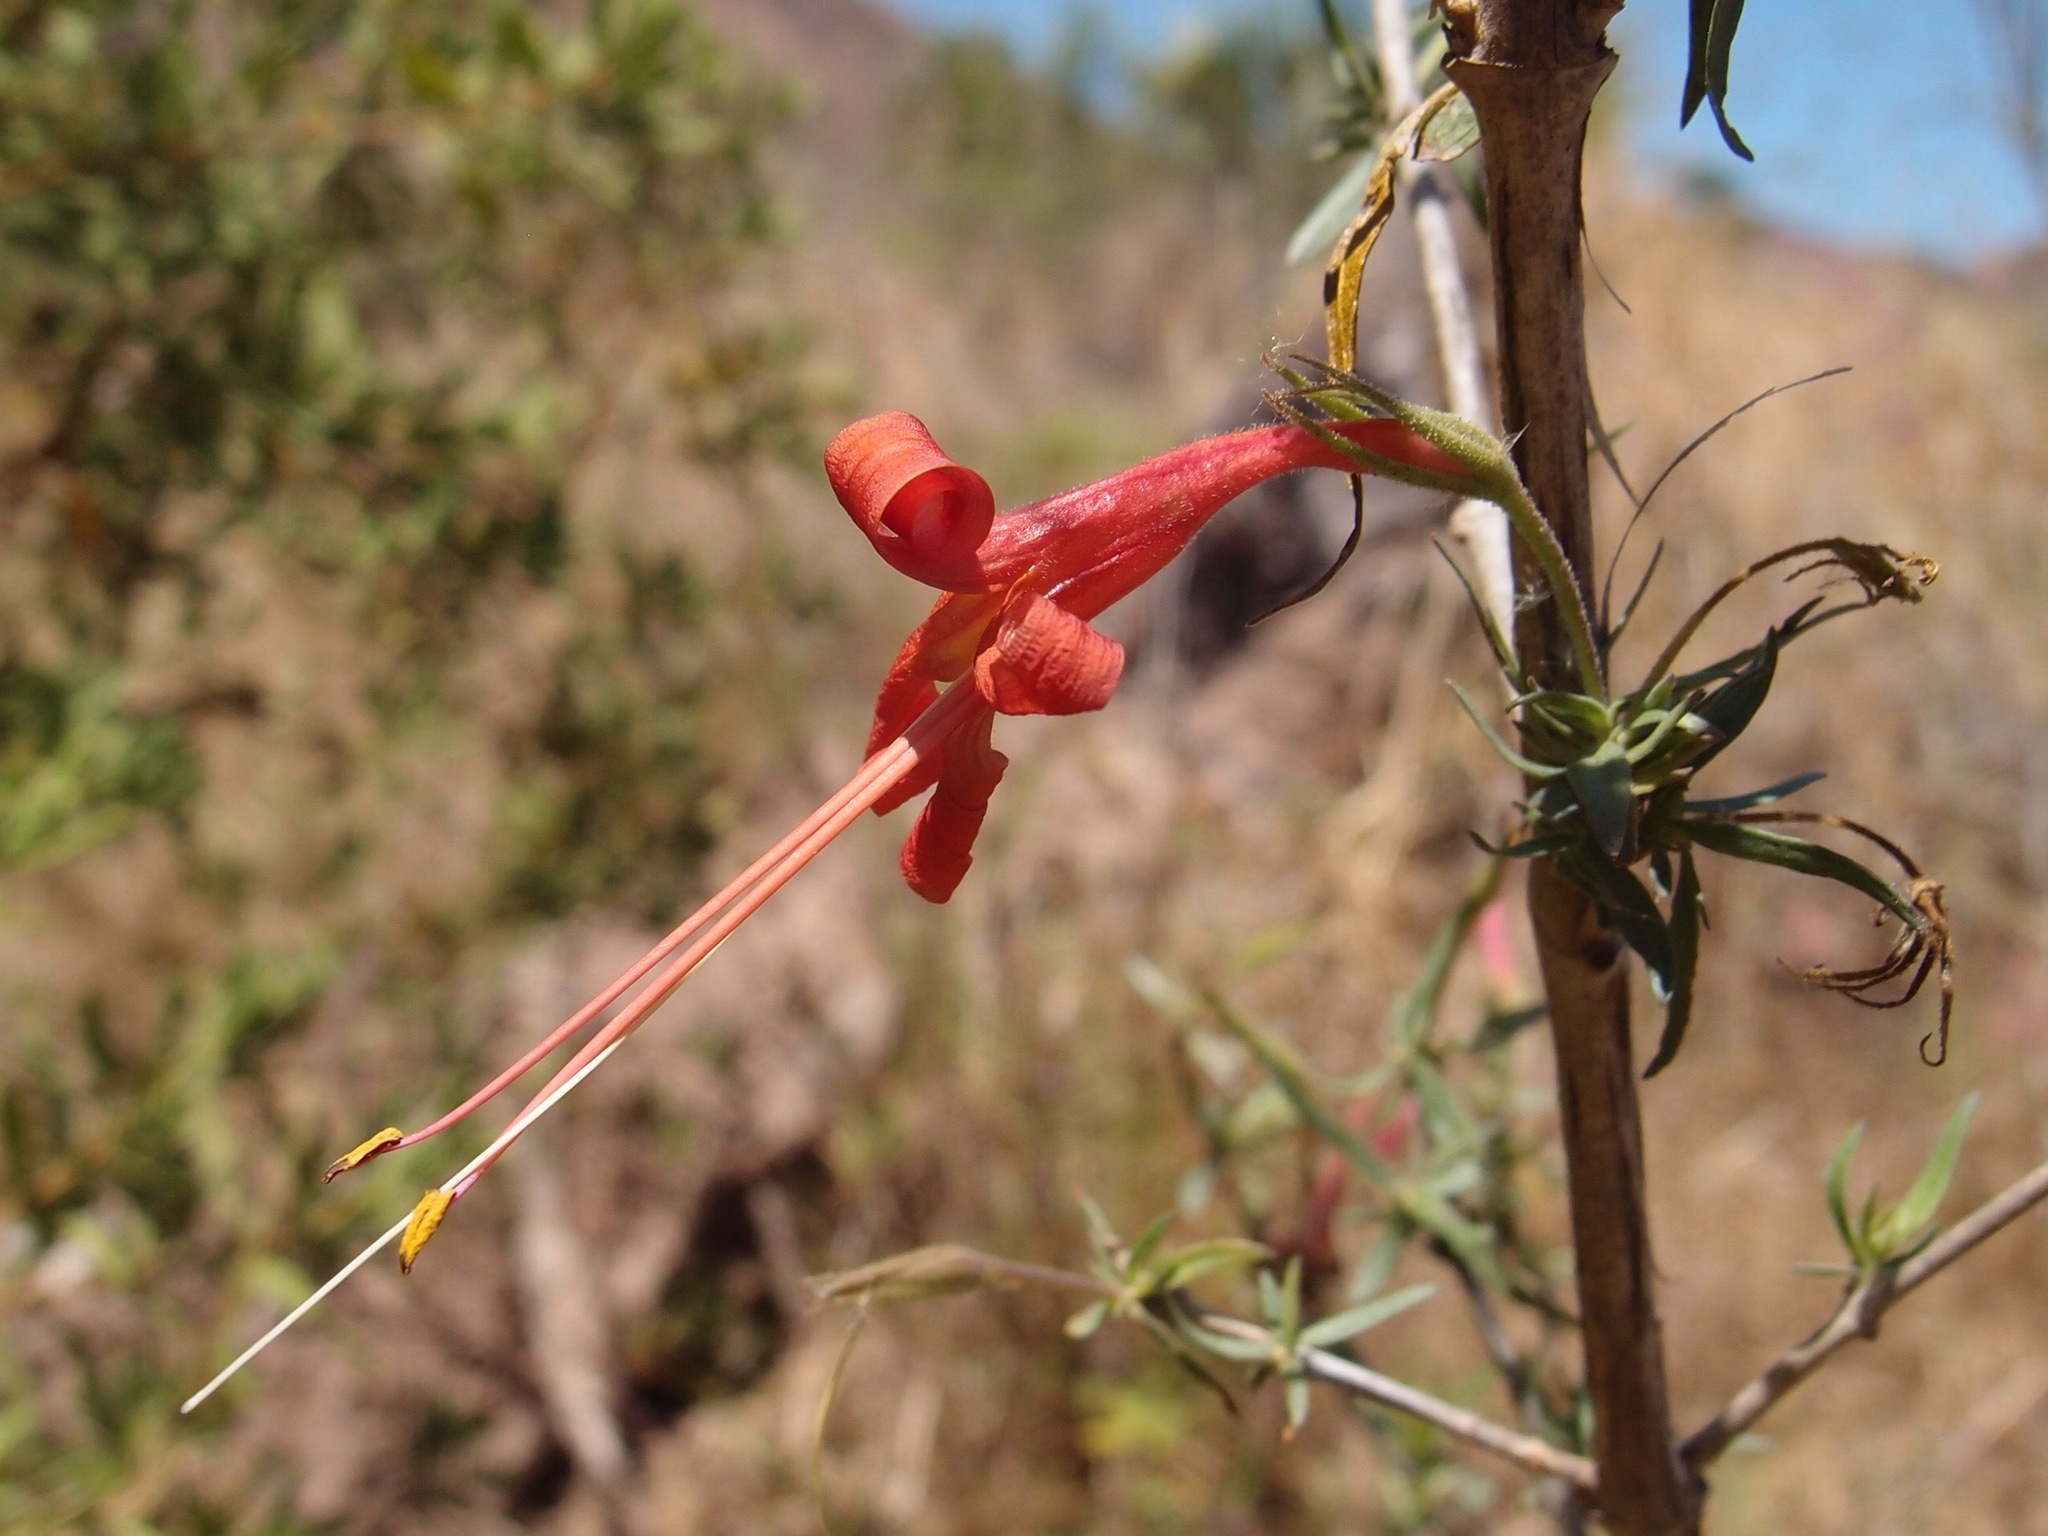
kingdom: Plantae
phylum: Tracheophyta
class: Magnoliopsida
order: Lamiales
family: Acanthaceae
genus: Anisacanthus
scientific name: Anisacanthus thurberi
